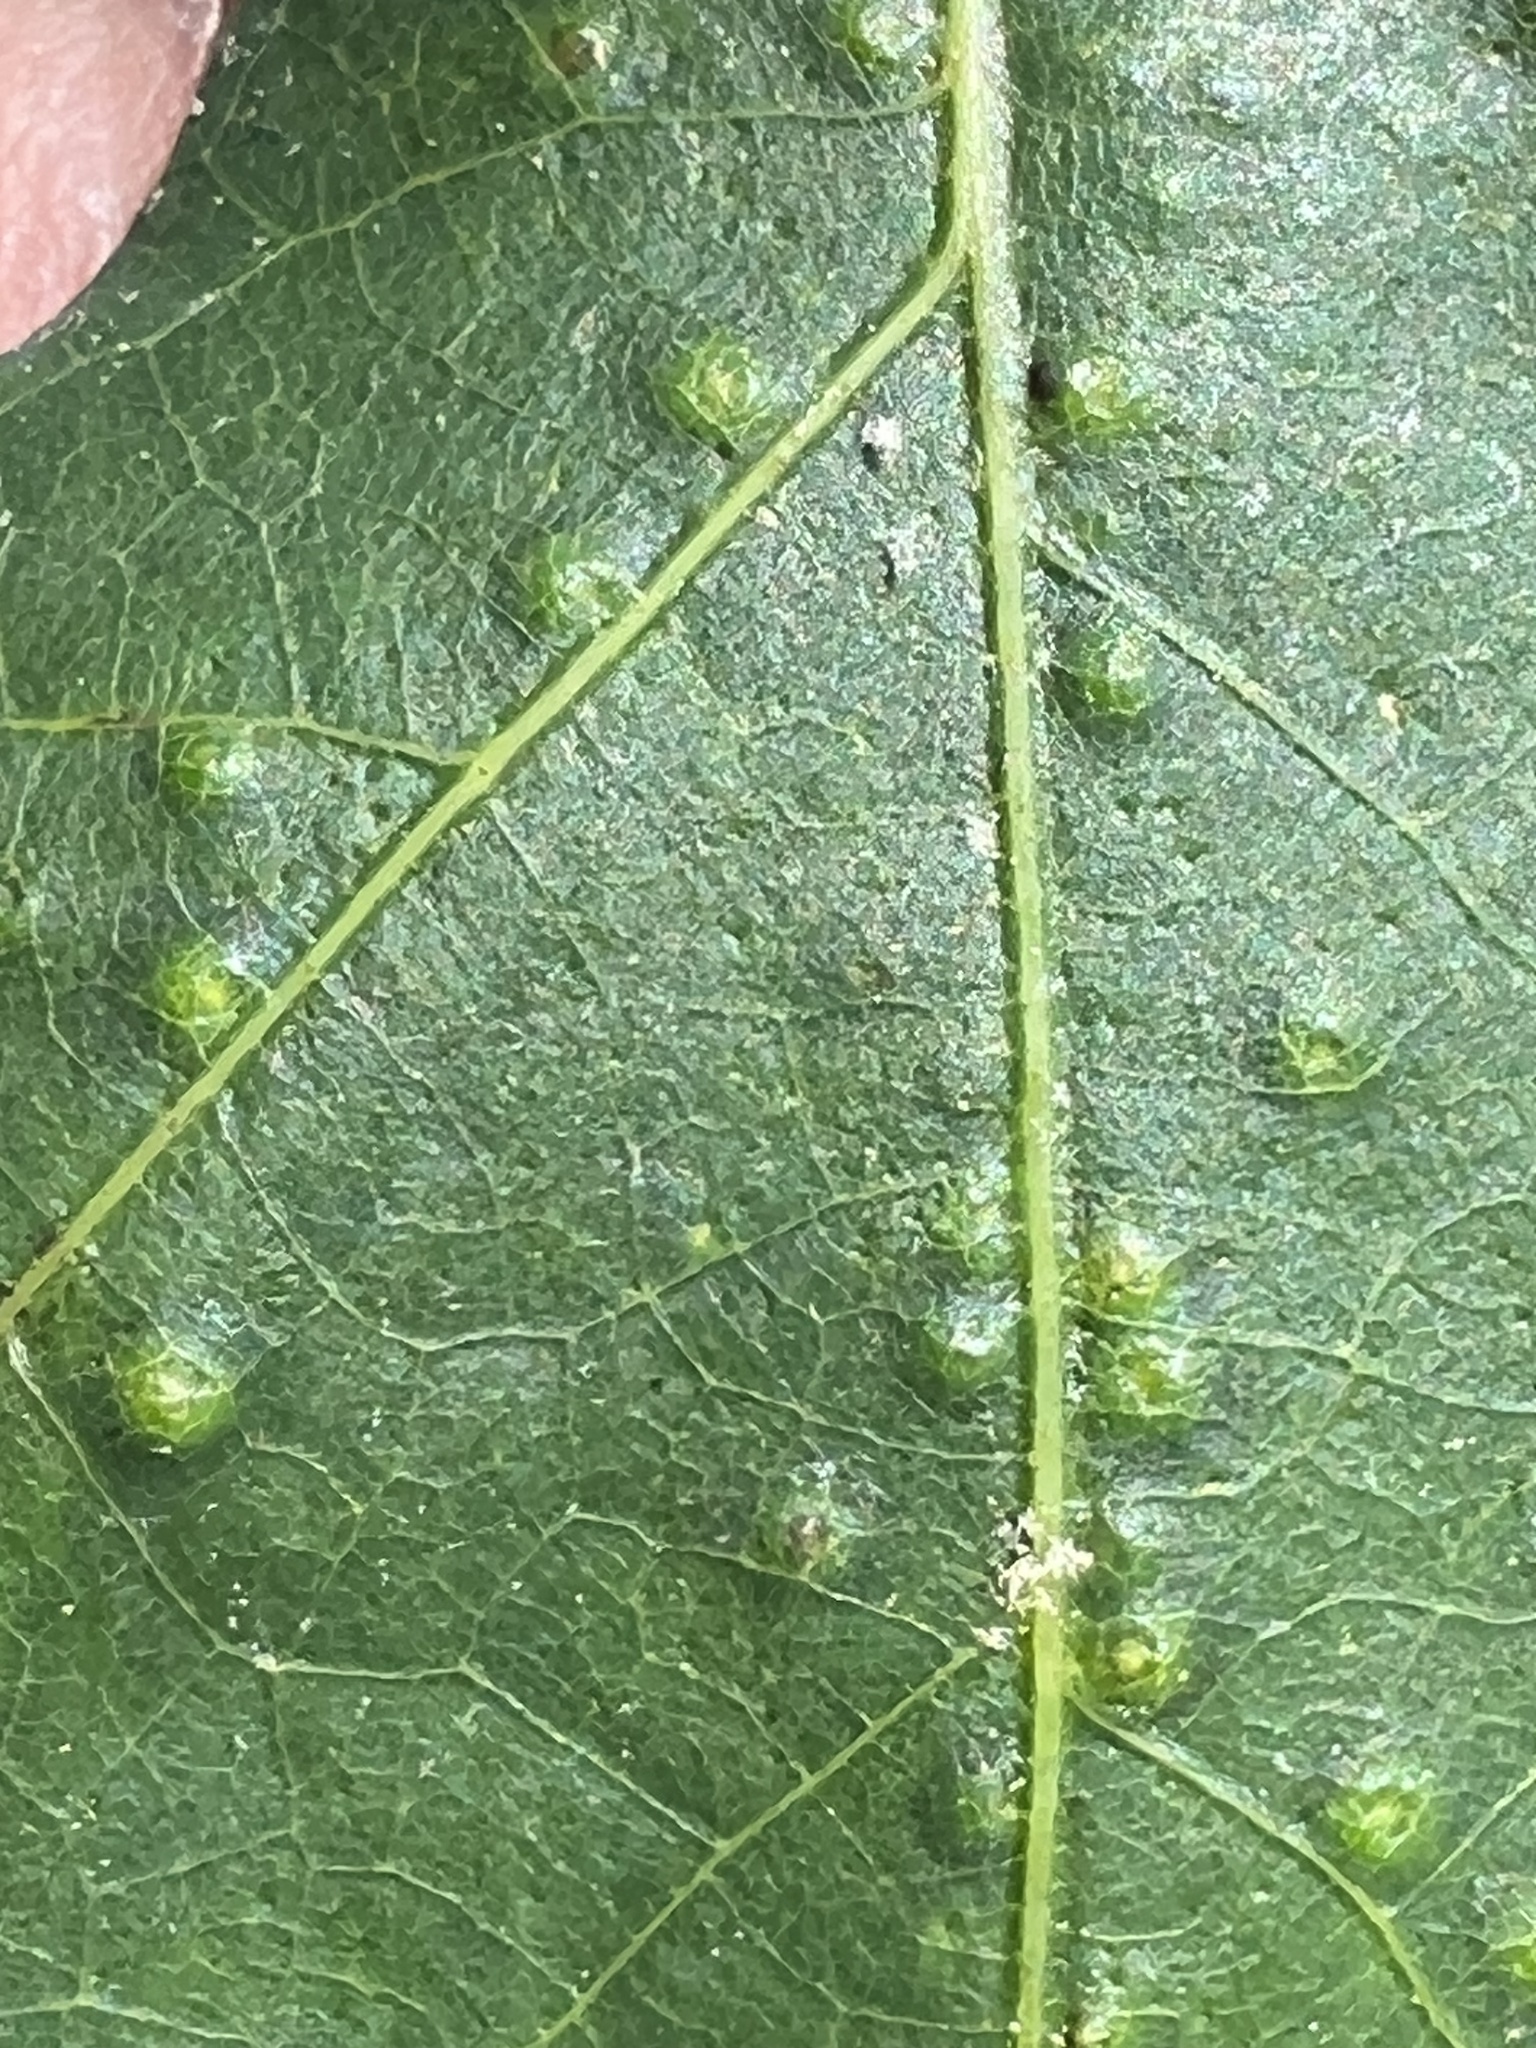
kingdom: Animalia
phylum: Arthropoda
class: Insecta
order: Hymenoptera
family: Cynipidae
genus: Neuroterus
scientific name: Neuroterus
